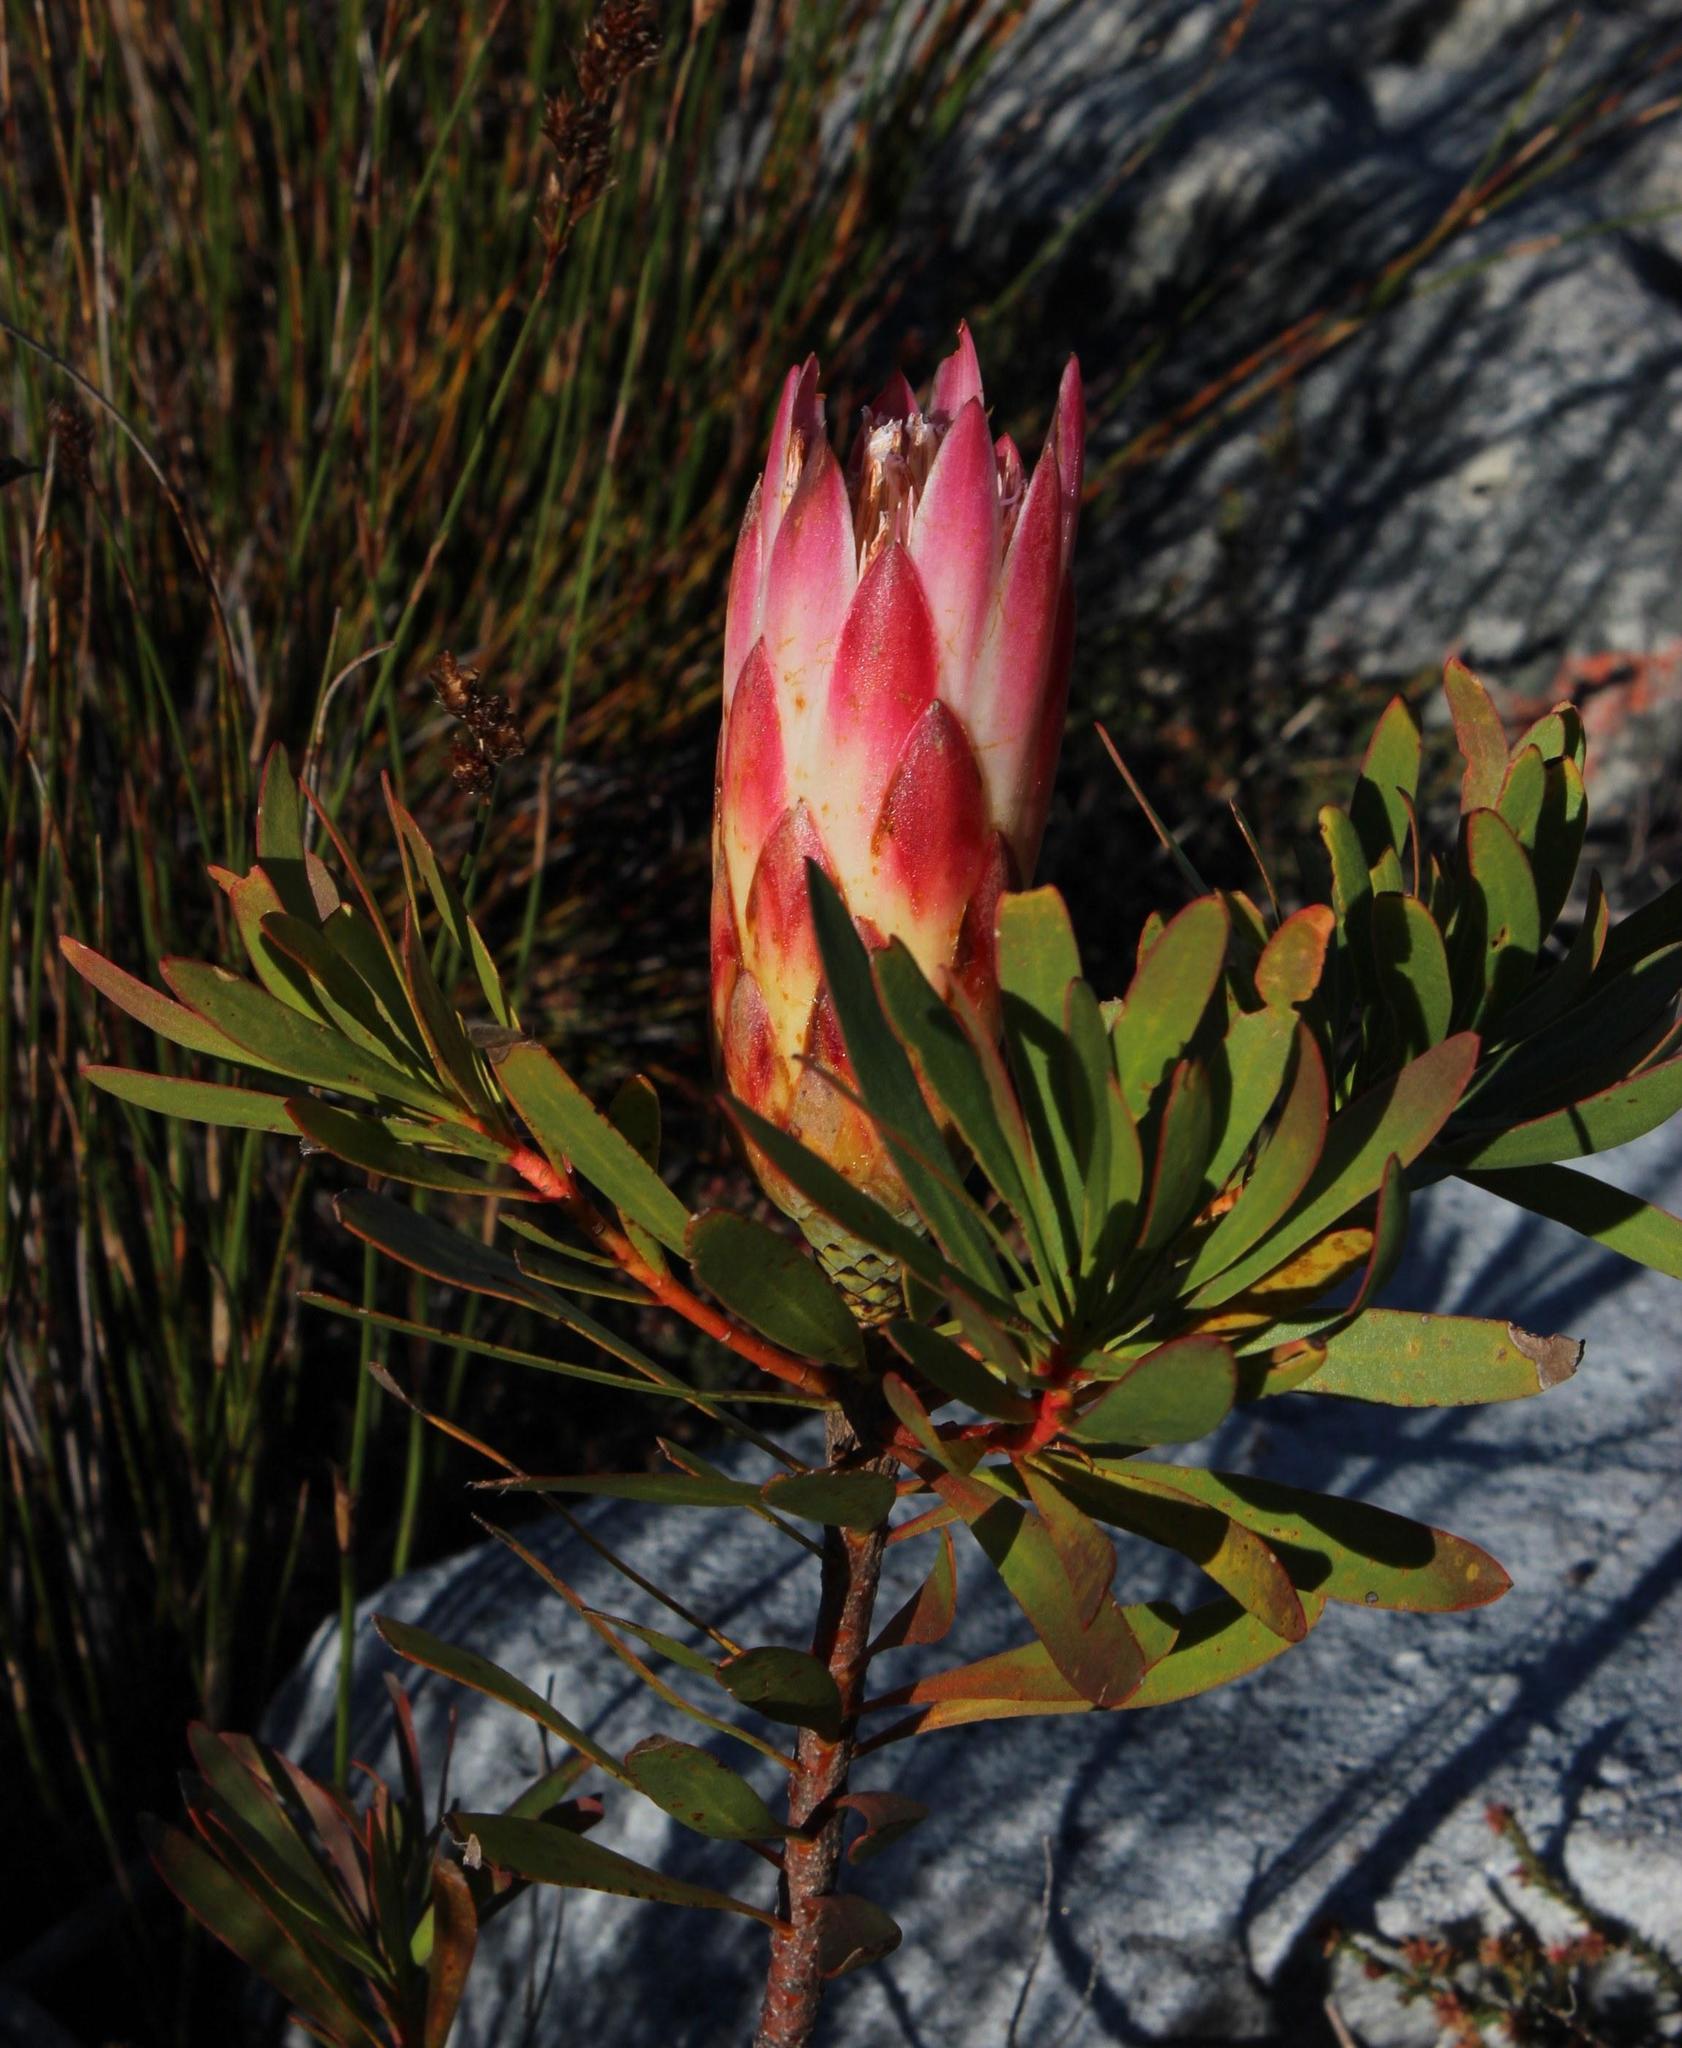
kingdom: Plantae
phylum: Tracheophyta
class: Magnoliopsida
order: Proteales
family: Proteaceae
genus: Protea
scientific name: Protea repens
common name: Sugarbush
